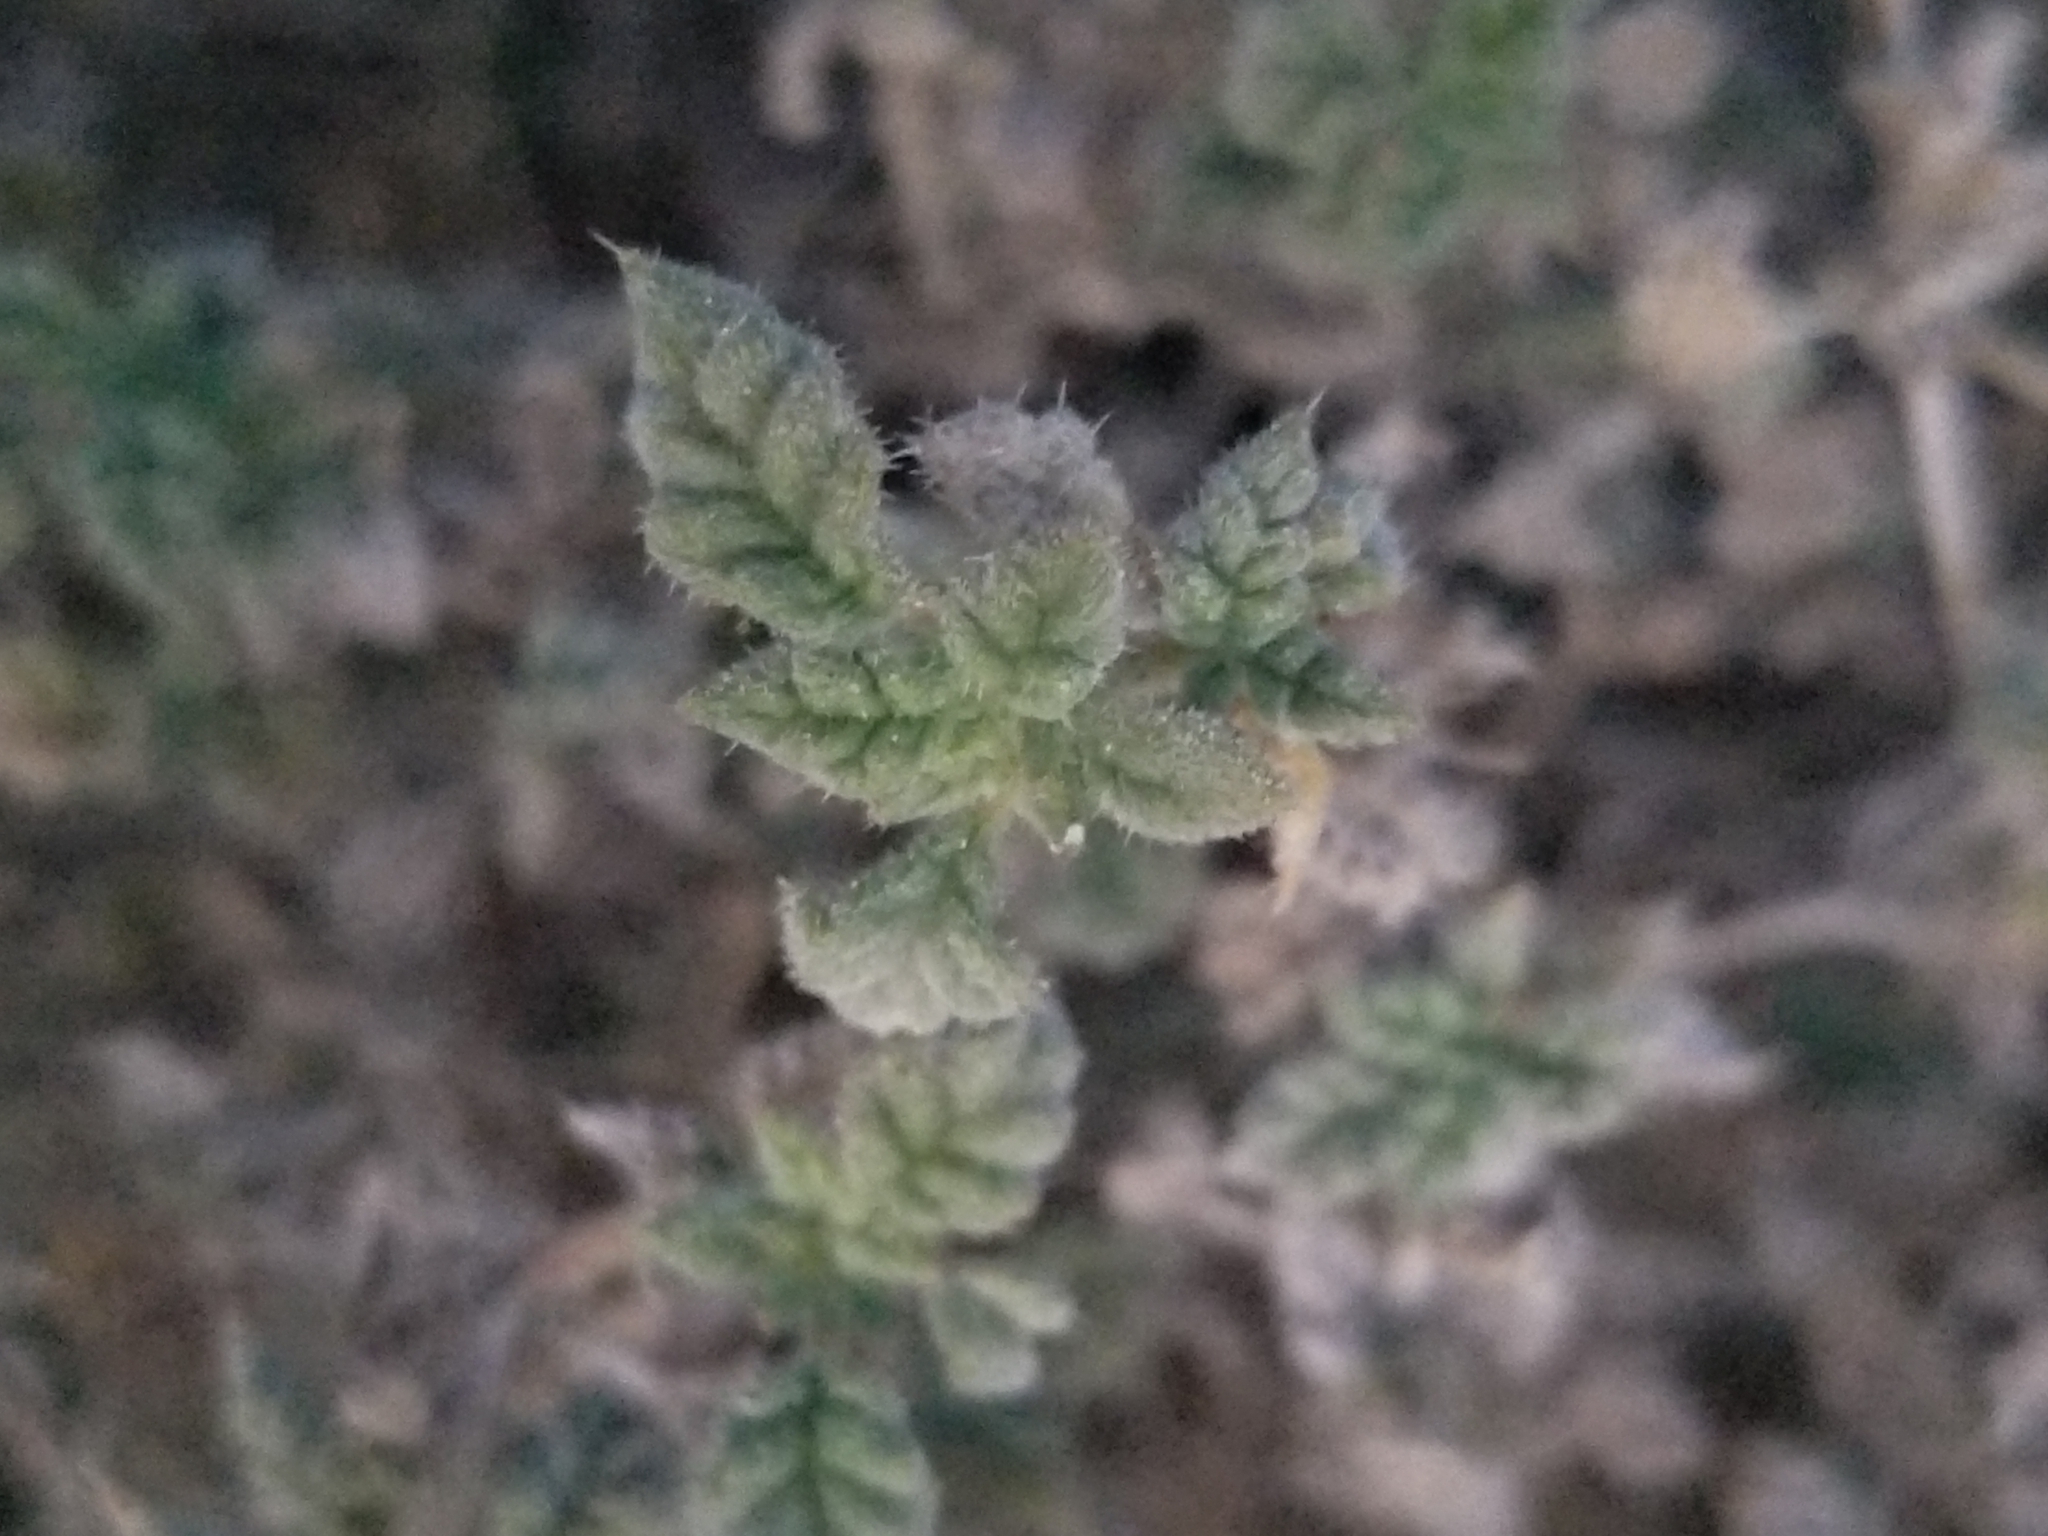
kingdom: Plantae
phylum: Tracheophyta
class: Magnoliopsida
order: Boraginales
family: Ehretiaceae
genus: Tiquilia
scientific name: Tiquilia palmeri
